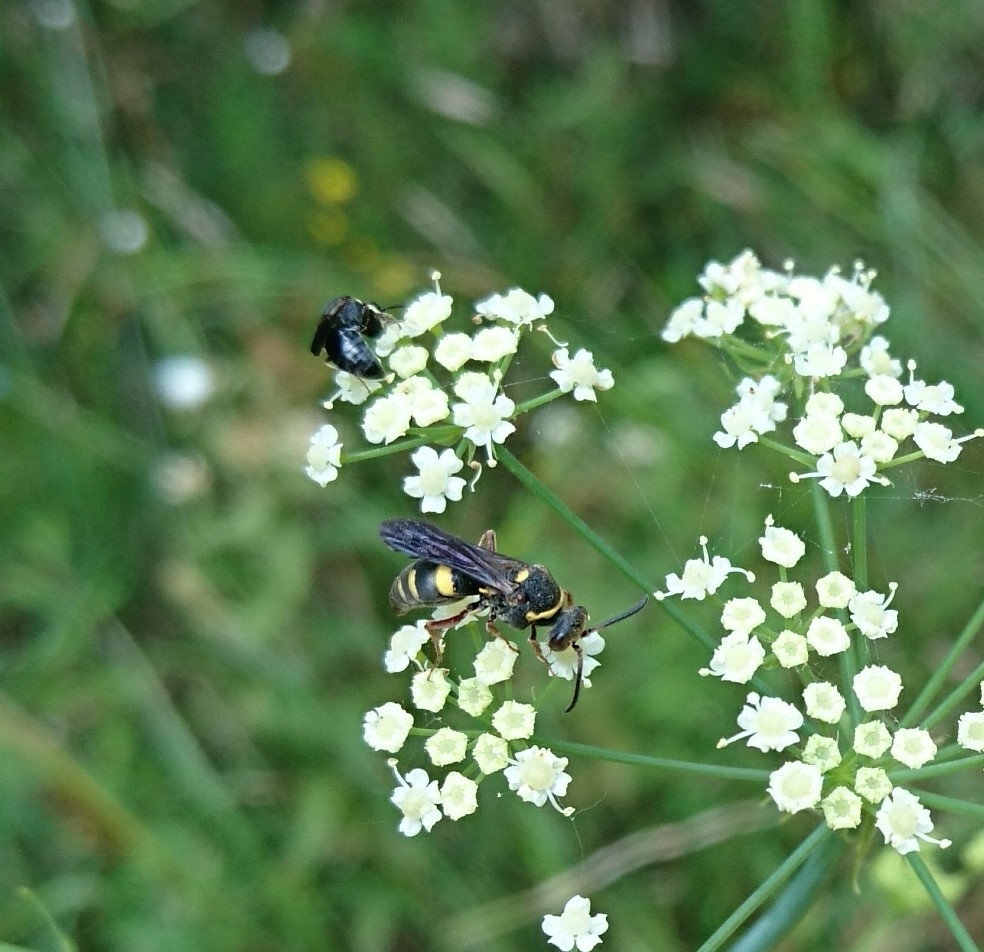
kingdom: Animalia
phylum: Arthropoda
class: Insecta
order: Hymenoptera
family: Crabronidae
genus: Nysson
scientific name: Nysson aequalis
